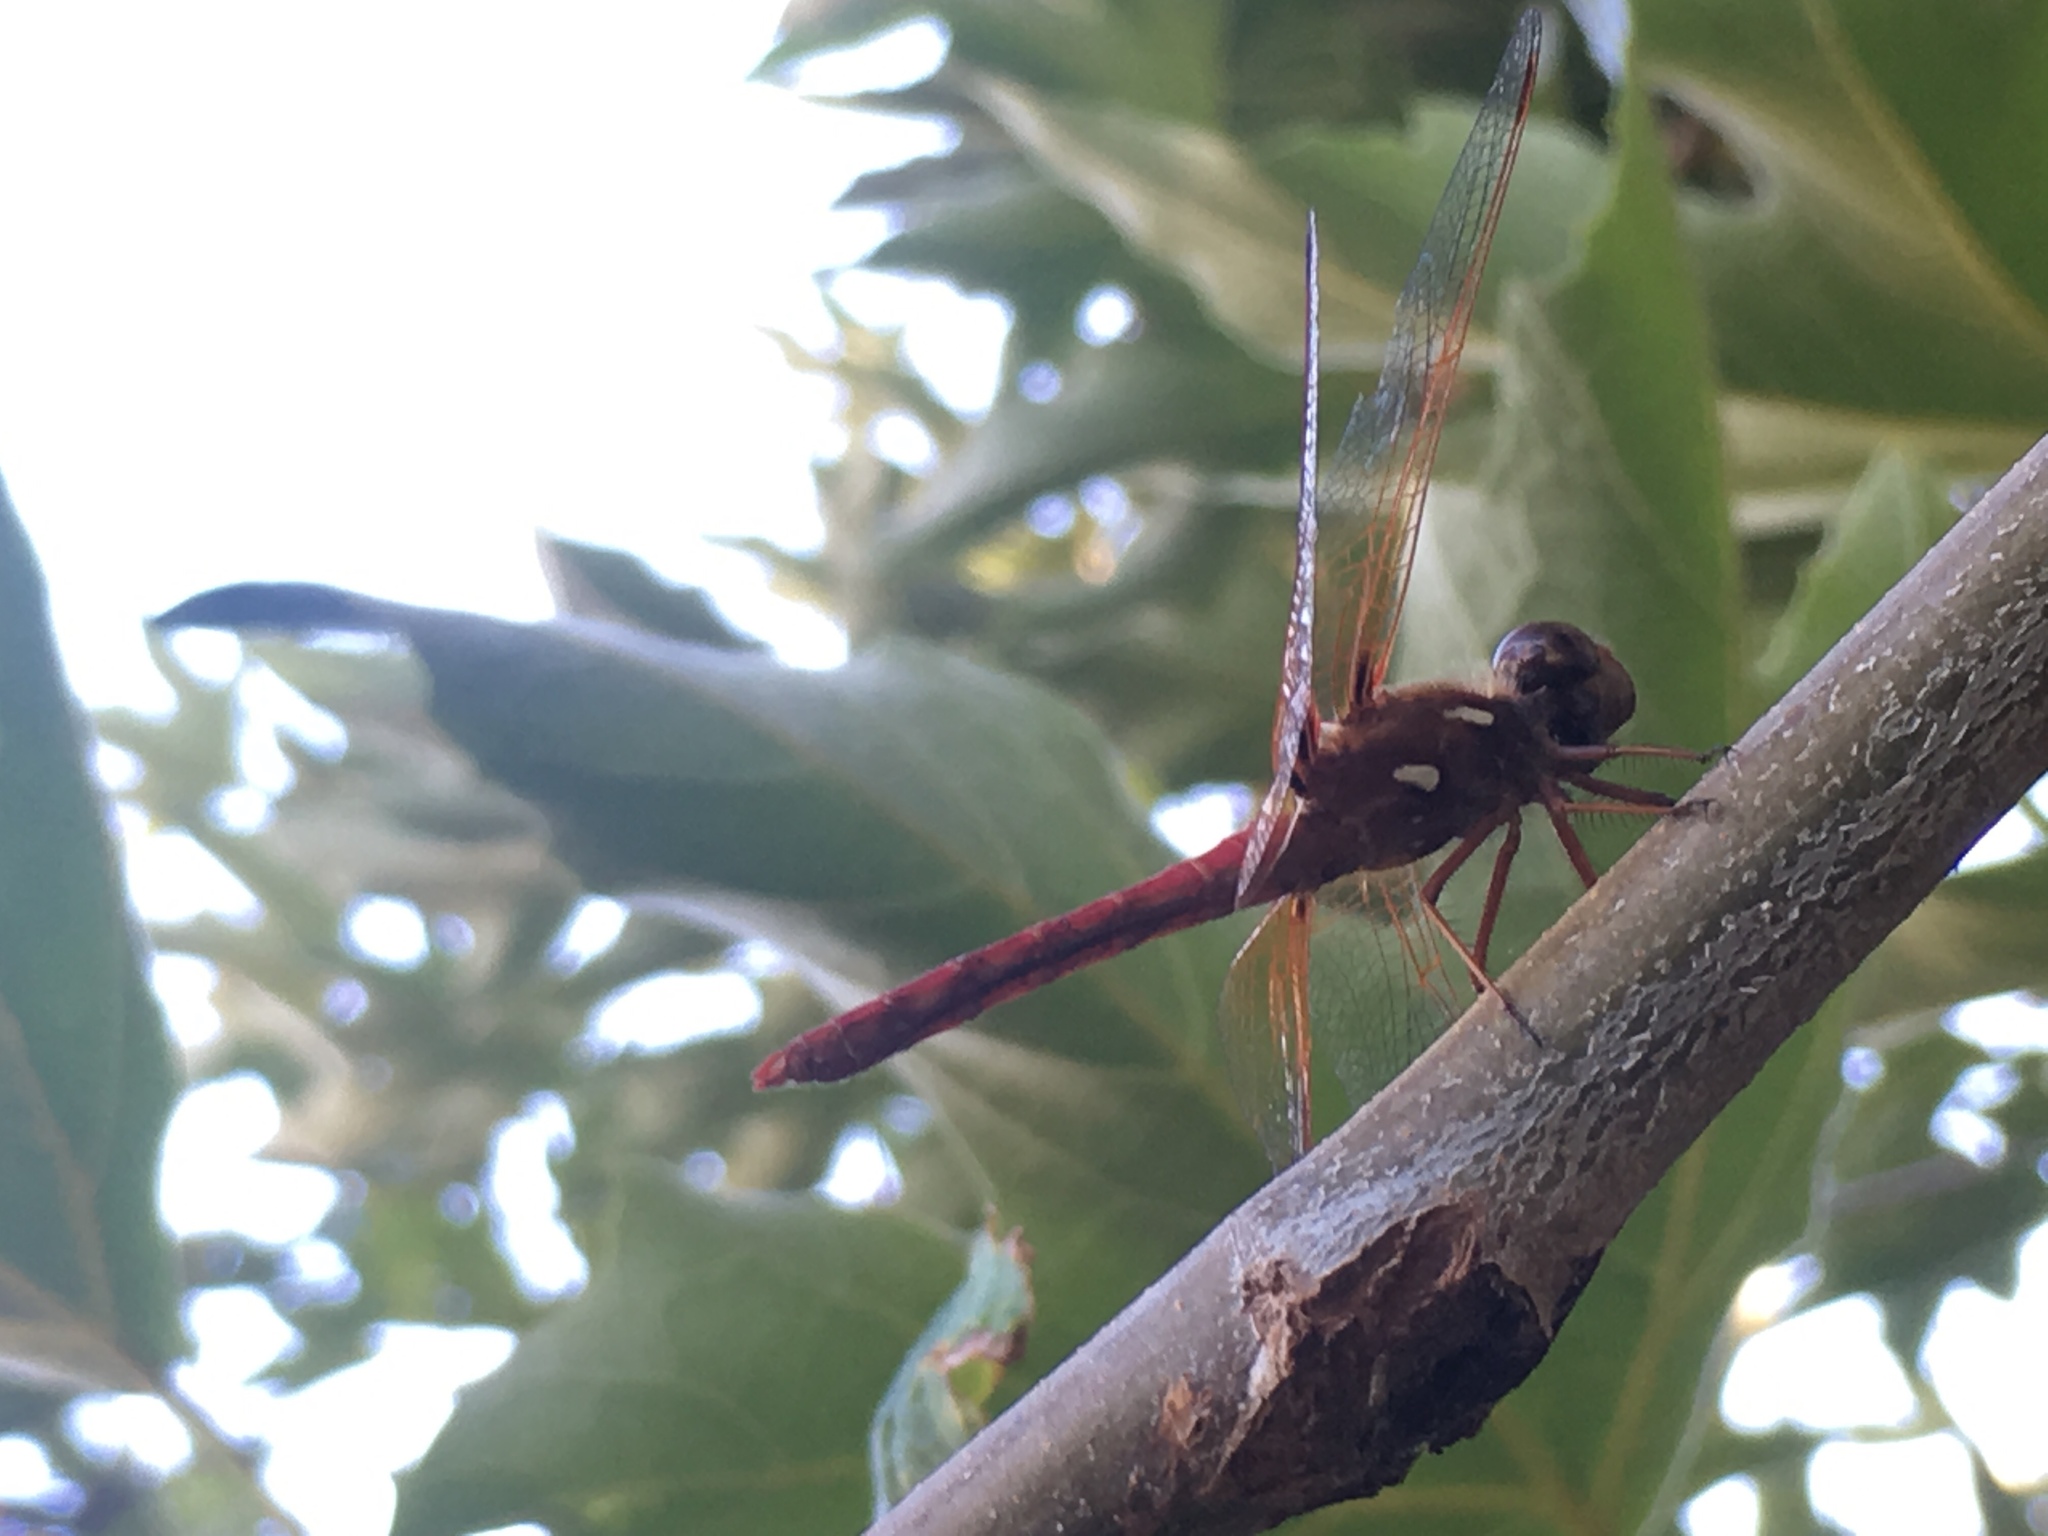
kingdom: Animalia
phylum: Arthropoda
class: Insecta
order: Odonata
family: Libellulidae
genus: Sympetrum
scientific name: Sympetrum illotum
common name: Cardinal meadowhawk
